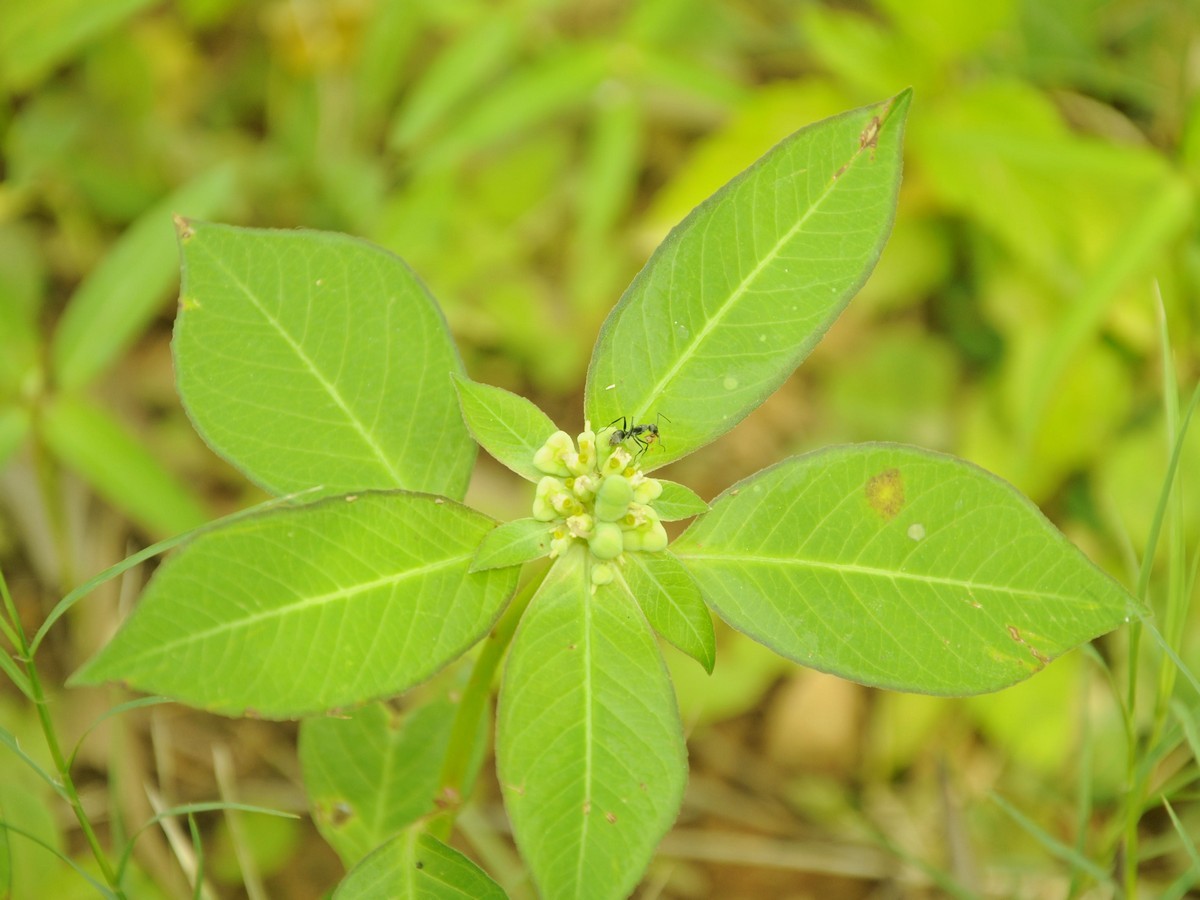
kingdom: Plantae
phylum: Tracheophyta
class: Magnoliopsida
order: Malpighiales
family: Euphorbiaceae
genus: Euphorbia
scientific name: Euphorbia heterophylla
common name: Mexican fireplant
